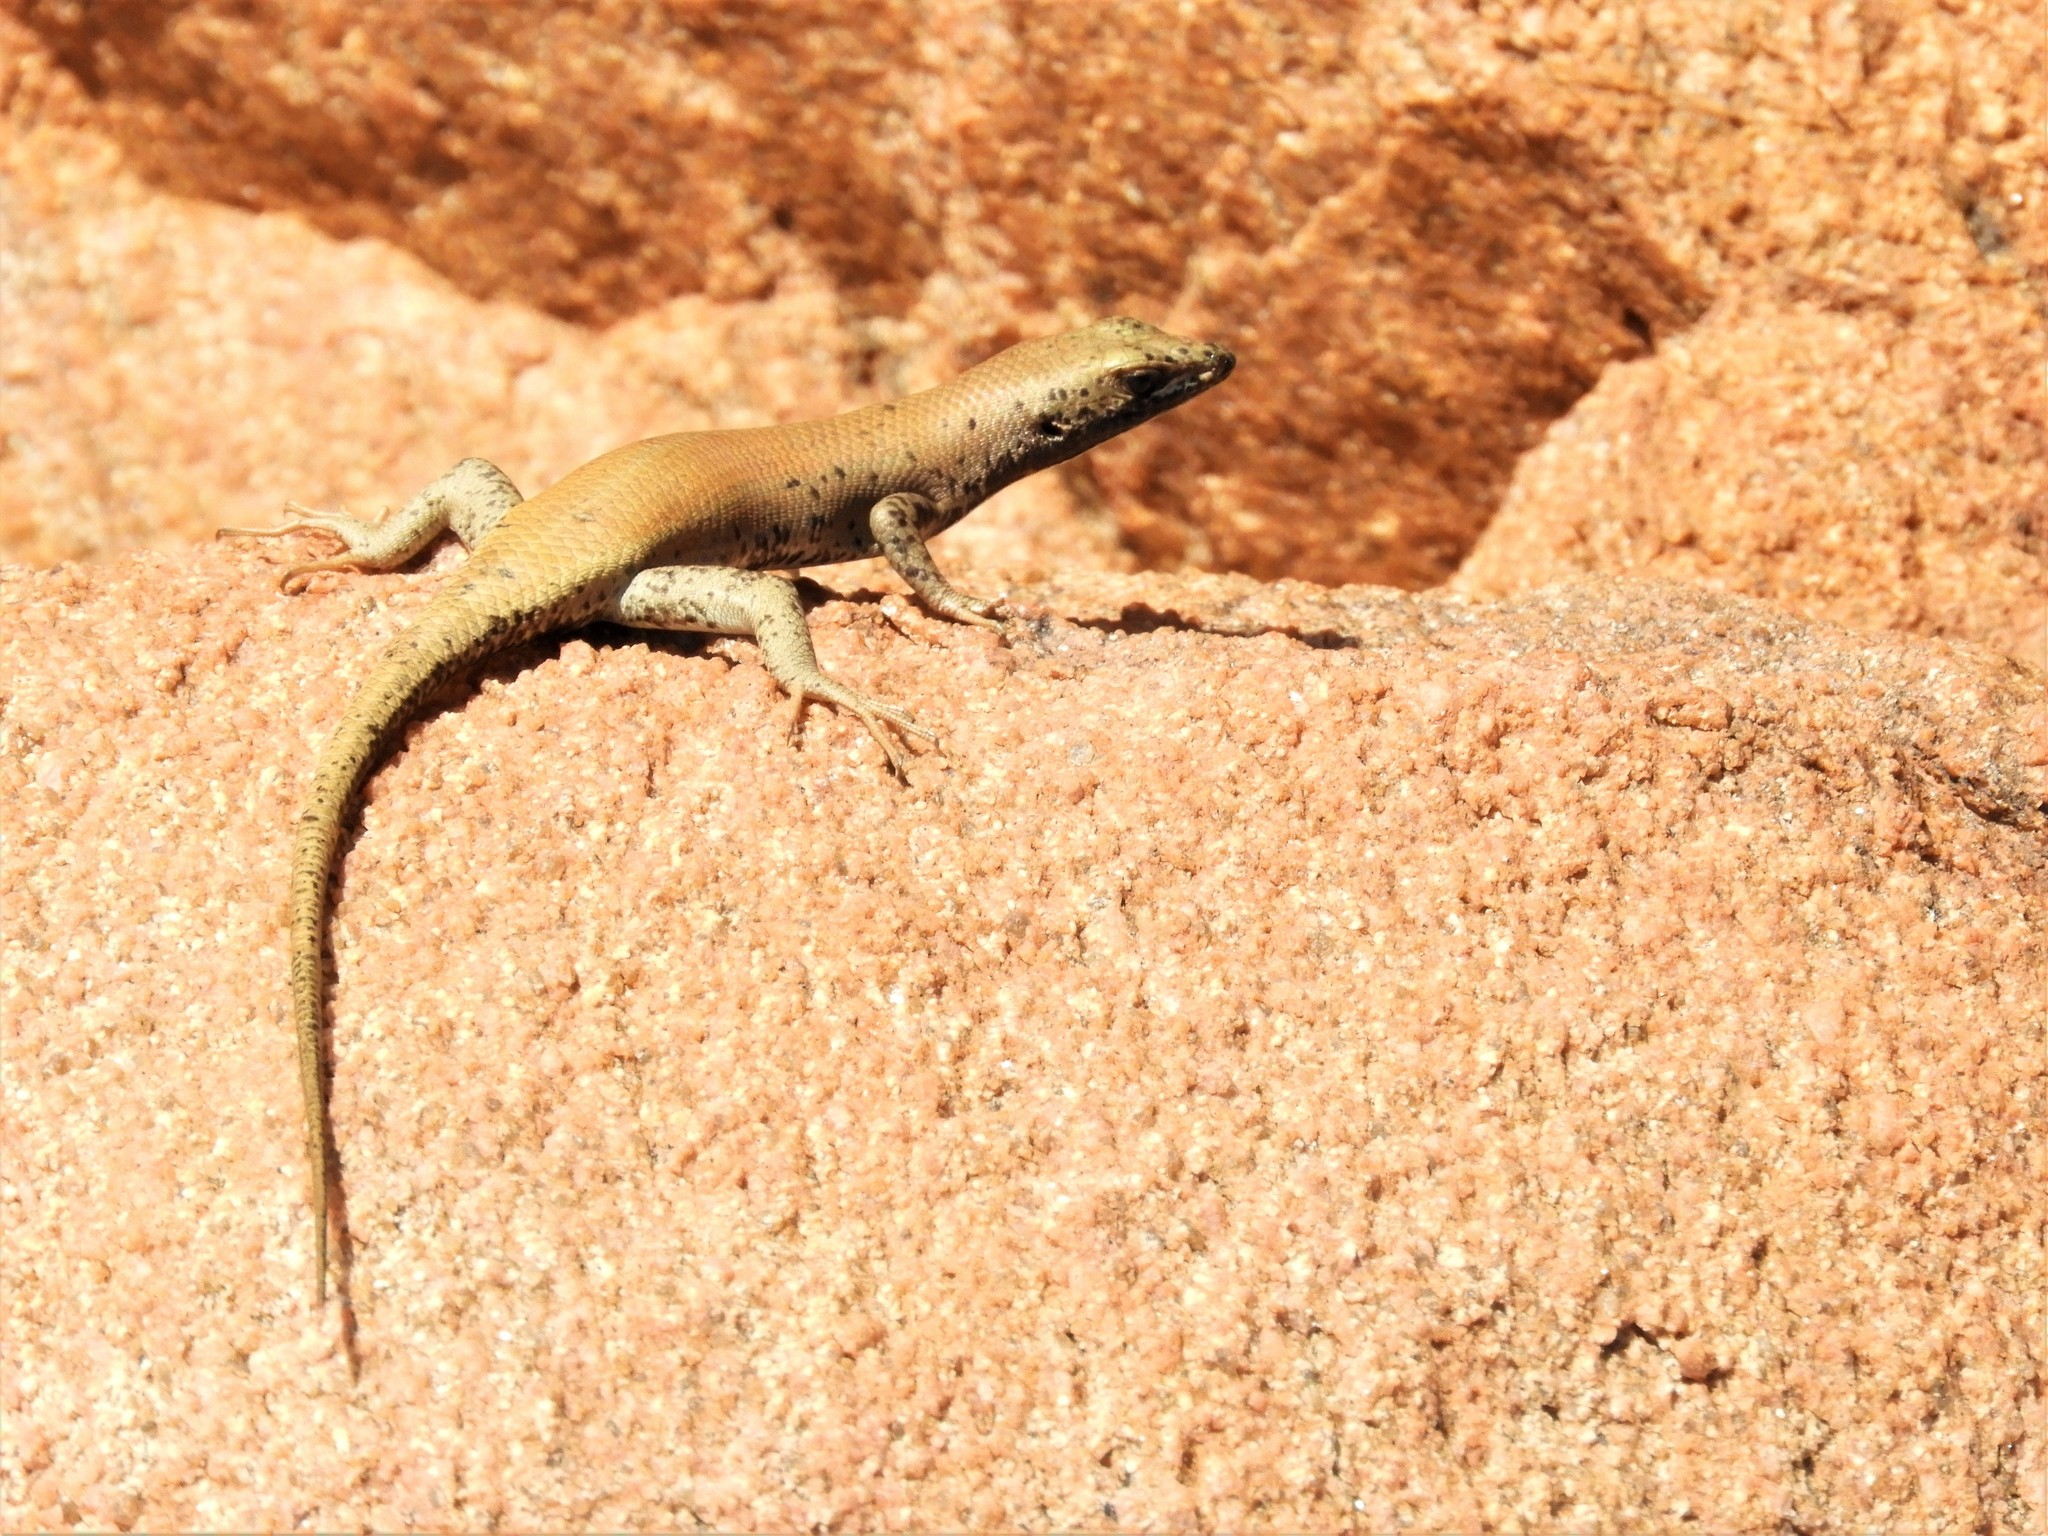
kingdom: Animalia
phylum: Chordata
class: Squamata
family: Scincidae
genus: Trachylepis
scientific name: Trachylepis sulcata
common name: Western rock skink
